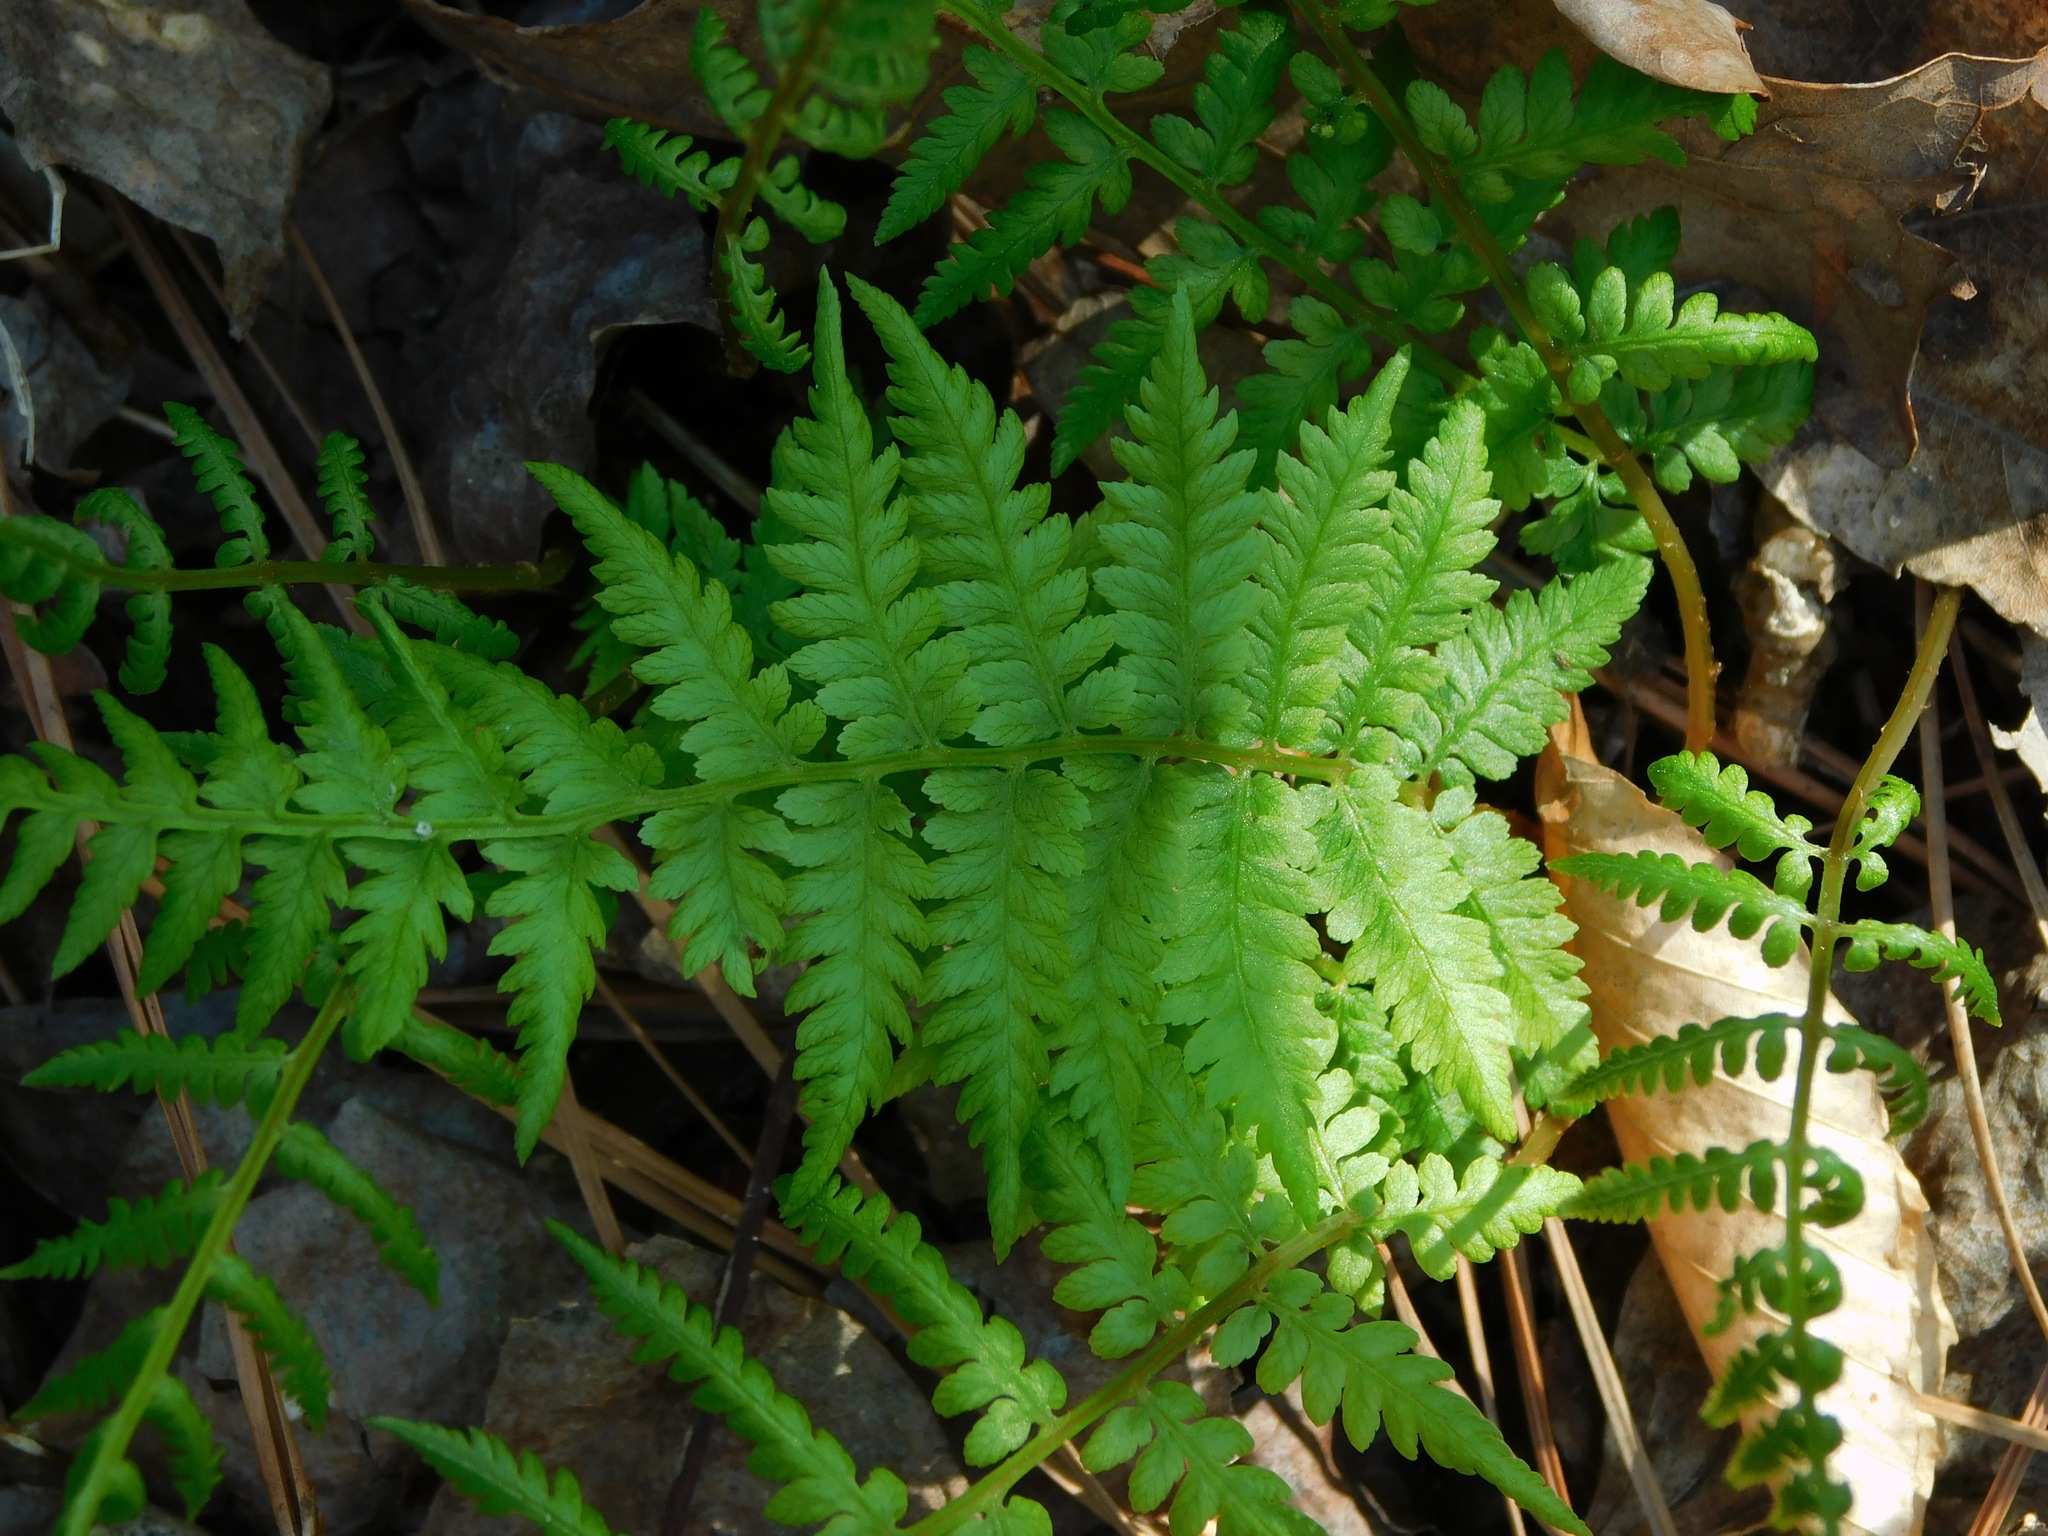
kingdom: Plantae
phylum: Tracheophyta
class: Polypodiopsida
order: Polypodiales
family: Athyriaceae
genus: Athyrium
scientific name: Athyrium asplenioides
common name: Southern lady fern
